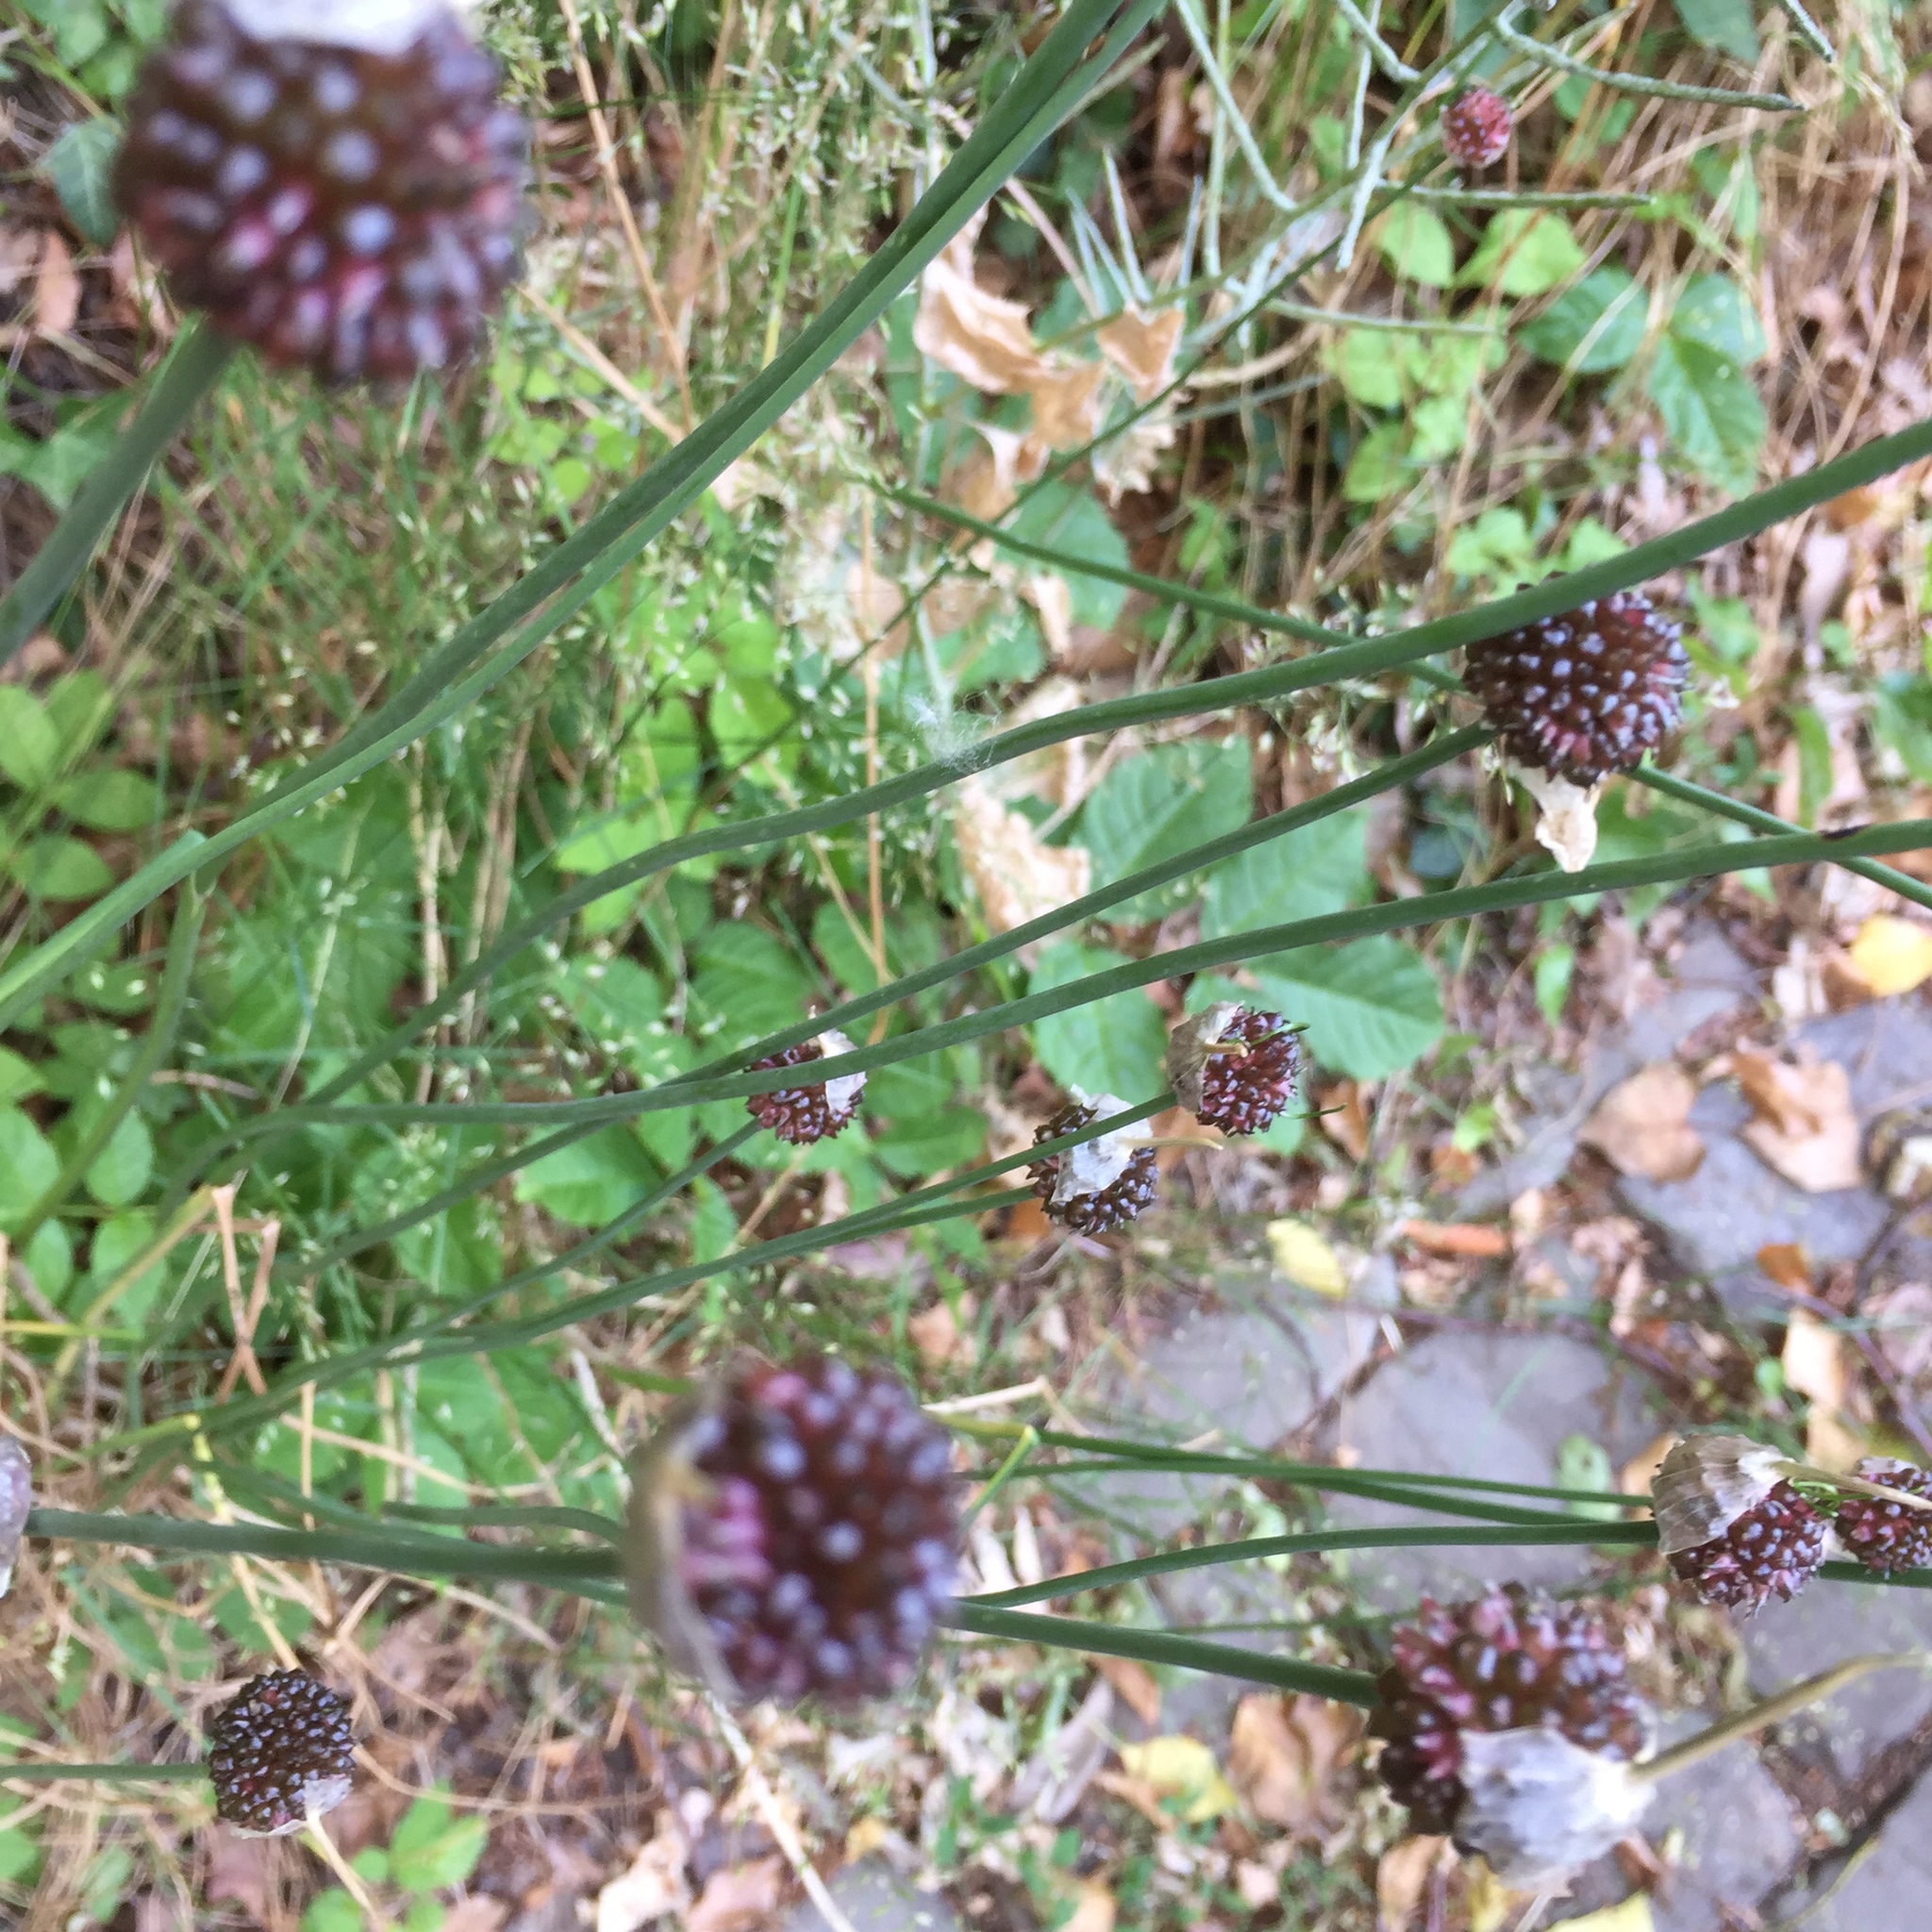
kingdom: Plantae
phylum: Tracheophyta
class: Liliopsida
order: Asparagales
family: Amaryllidaceae
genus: Allium
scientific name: Allium vineale
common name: Crow garlic
